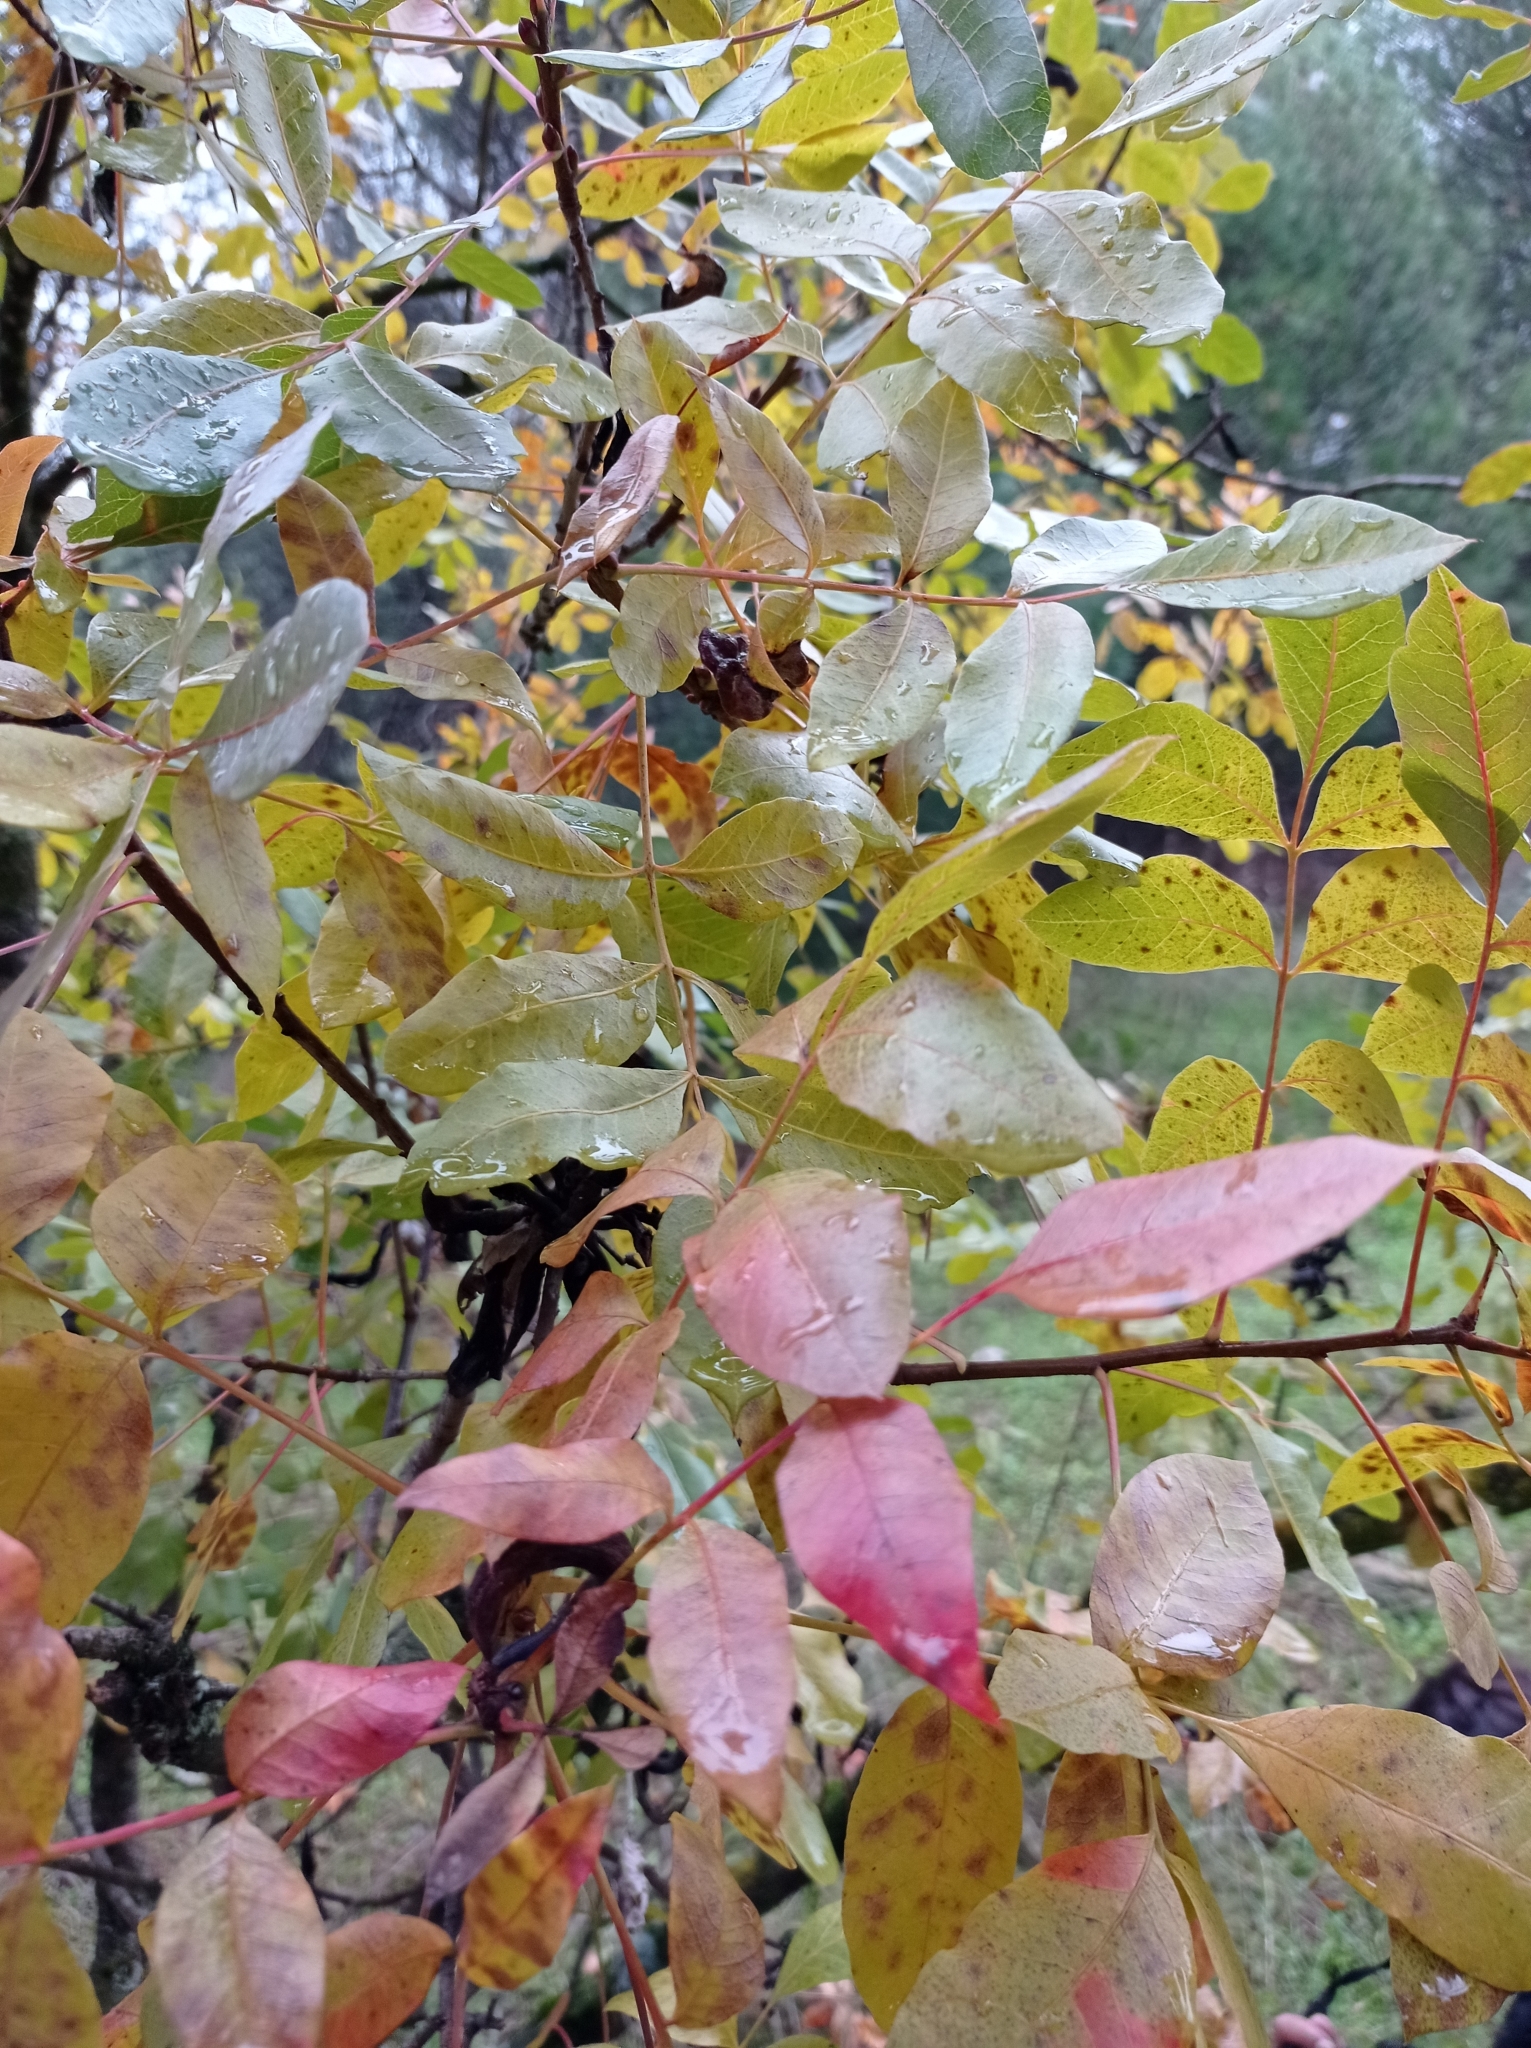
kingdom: Plantae
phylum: Tracheophyta
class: Magnoliopsida
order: Sapindales
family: Anacardiaceae
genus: Pistacia
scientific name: Pistacia terebinthus
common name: Terebinth
